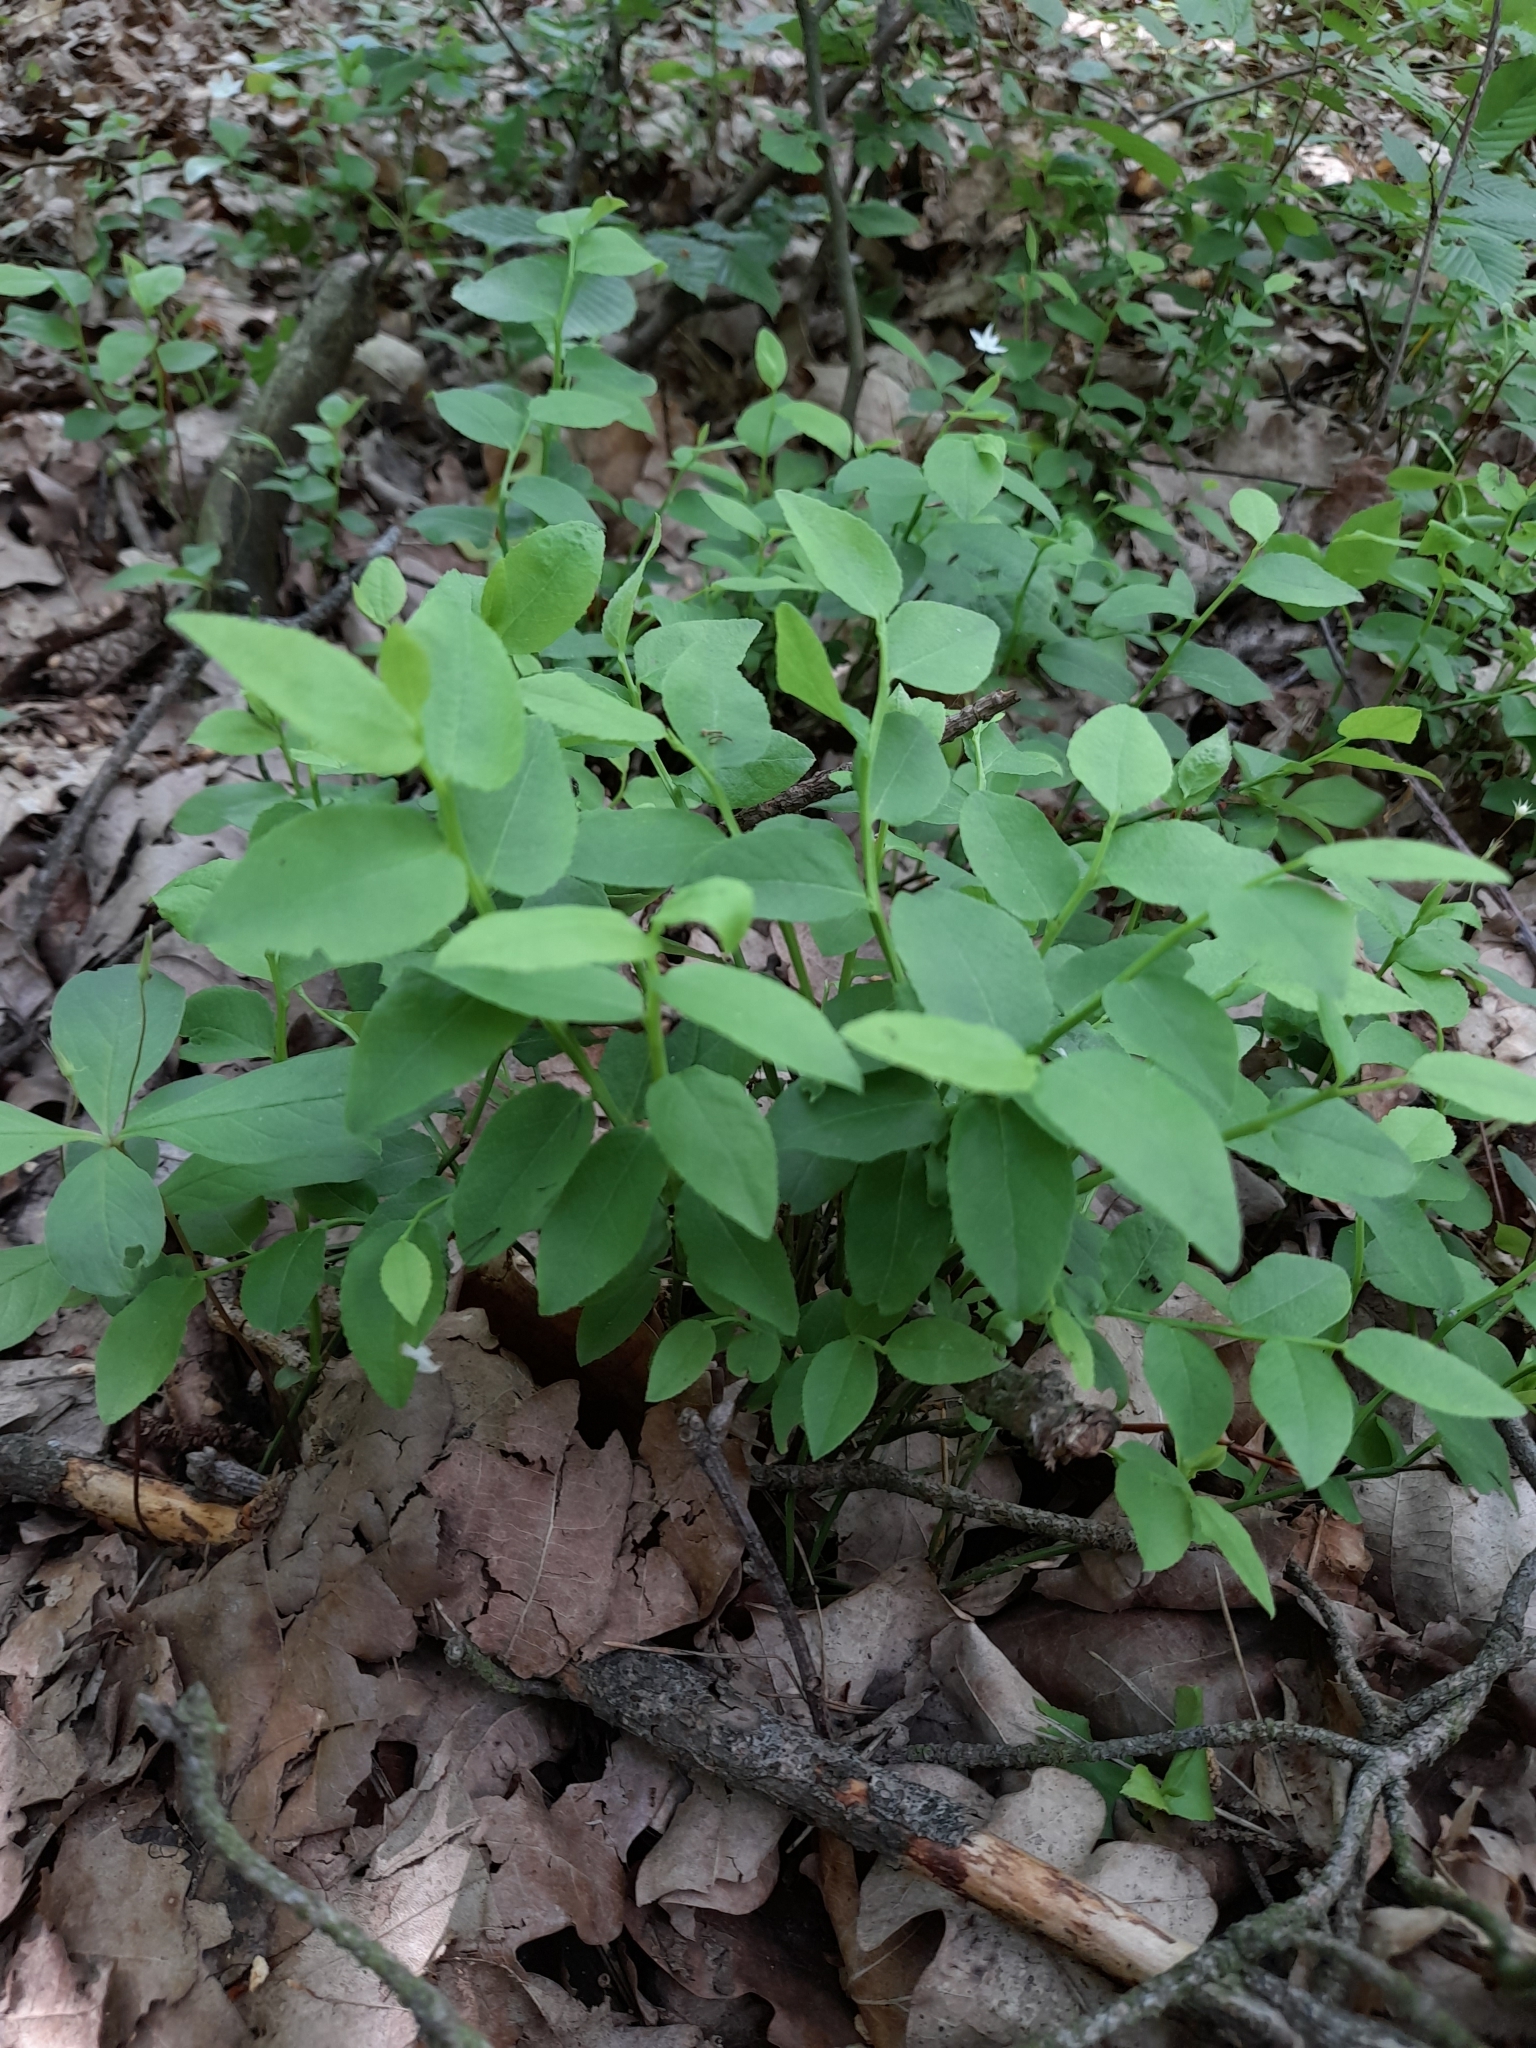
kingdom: Plantae
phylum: Tracheophyta
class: Magnoliopsida
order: Ericales
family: Ericaceae
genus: Vaccinium
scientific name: Vaccinium myrtillus
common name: Bilberry
